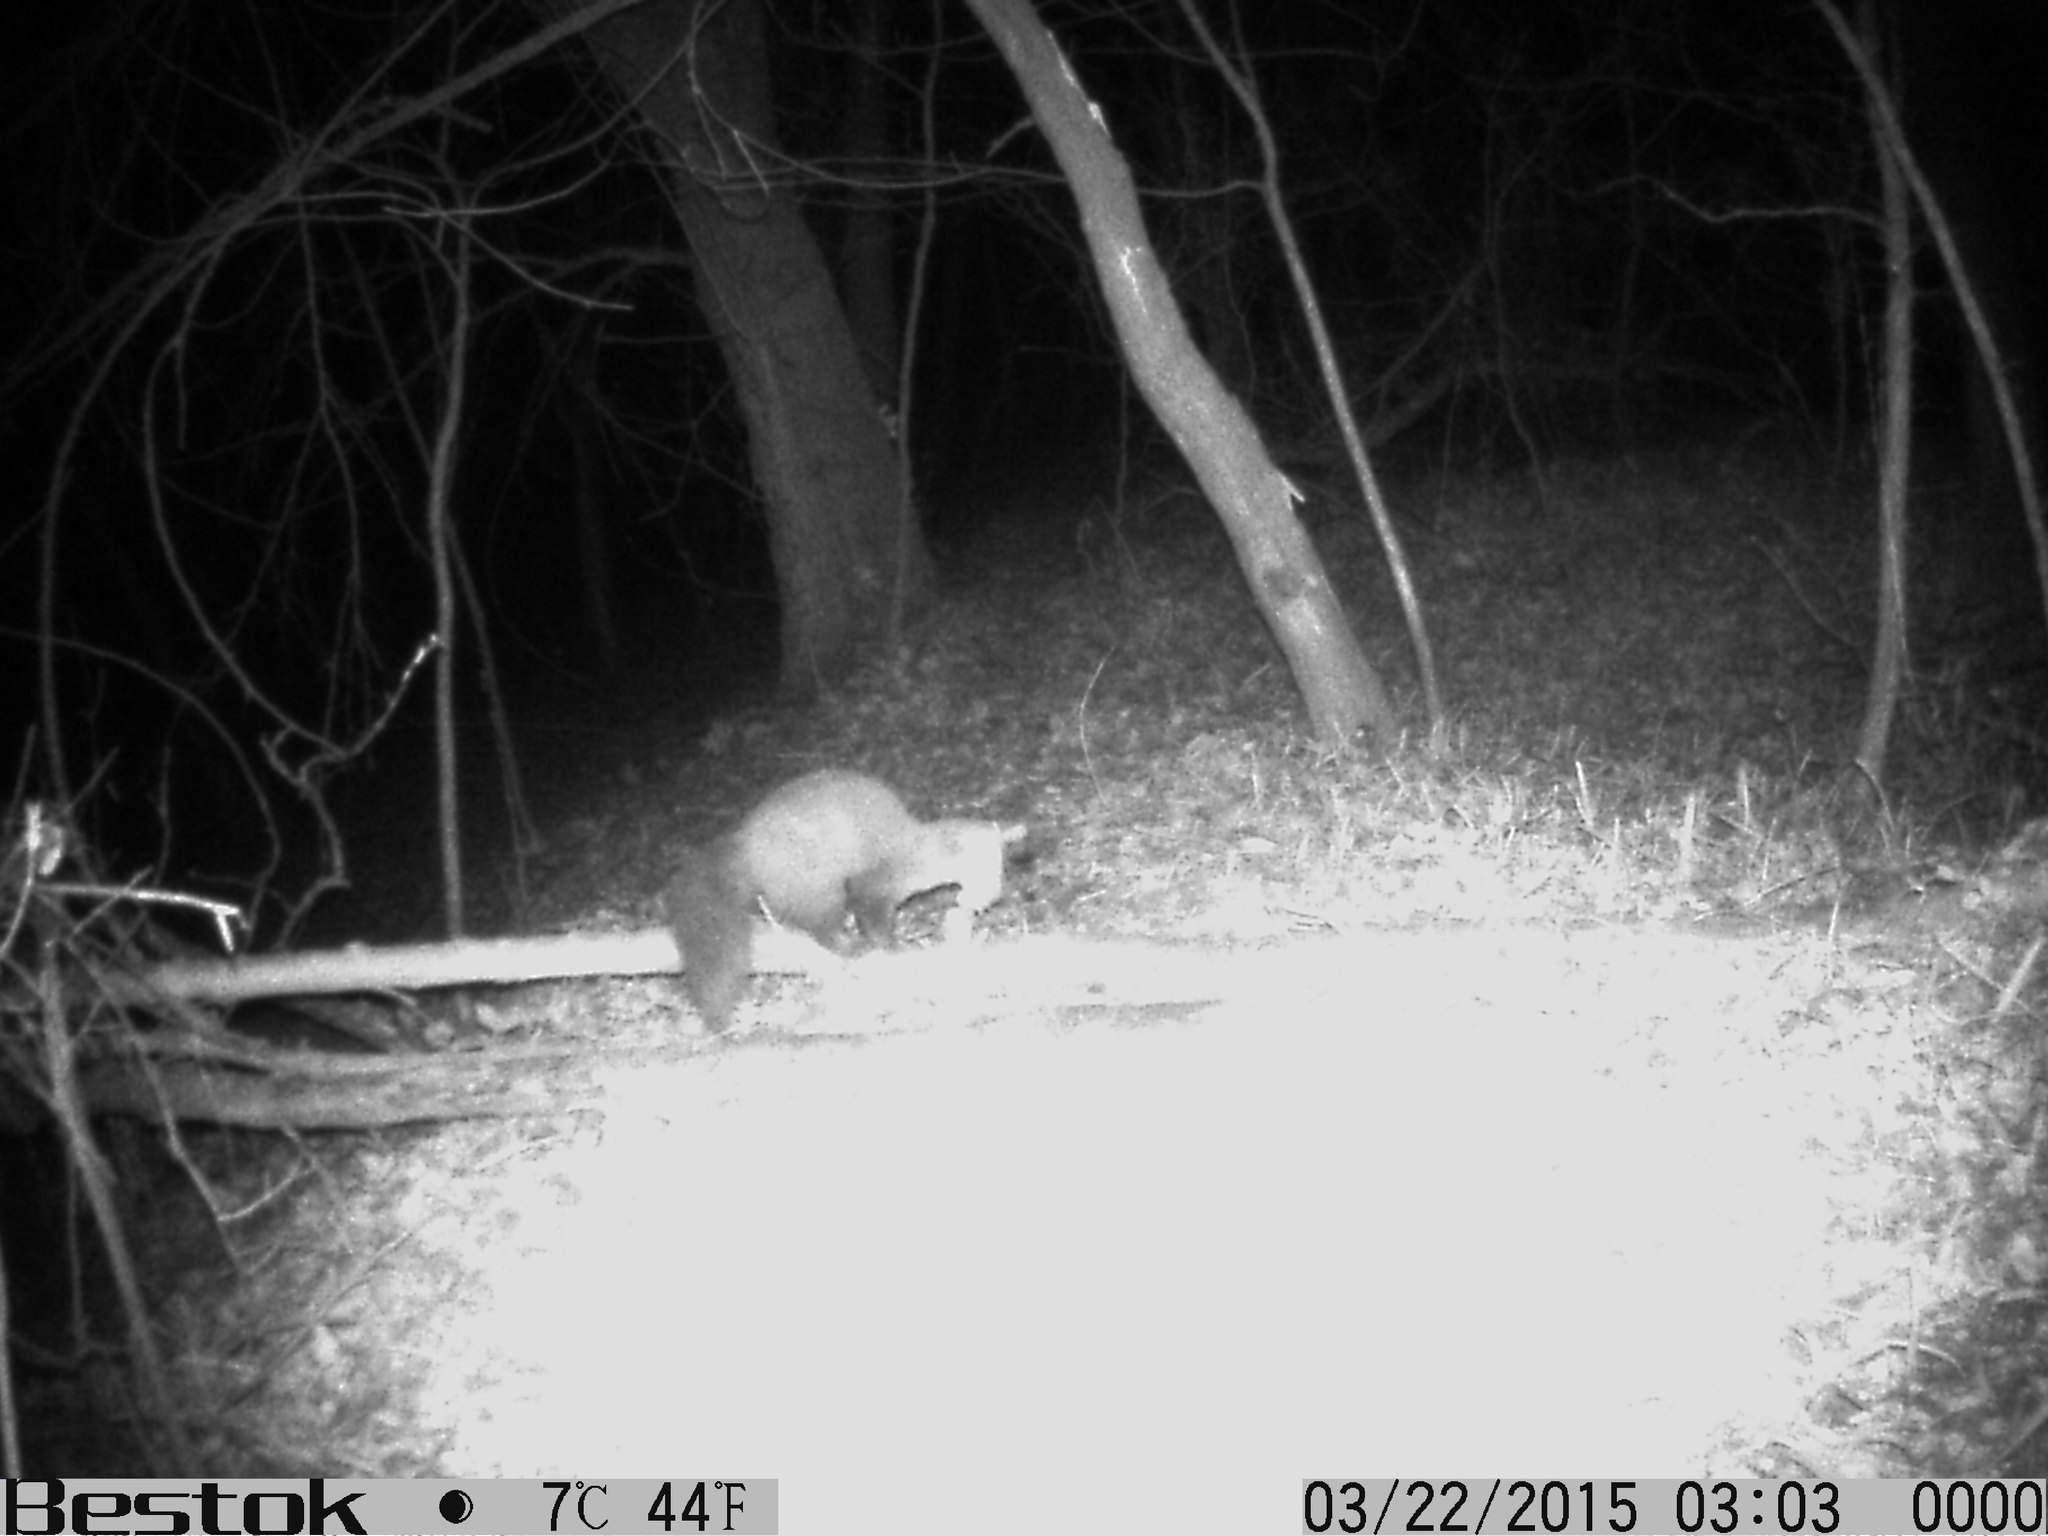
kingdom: Animalia
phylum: Chordata
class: Mammalia
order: Carnivora
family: Mustelidae
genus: Martes
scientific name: Martes foina
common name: Beech marten
